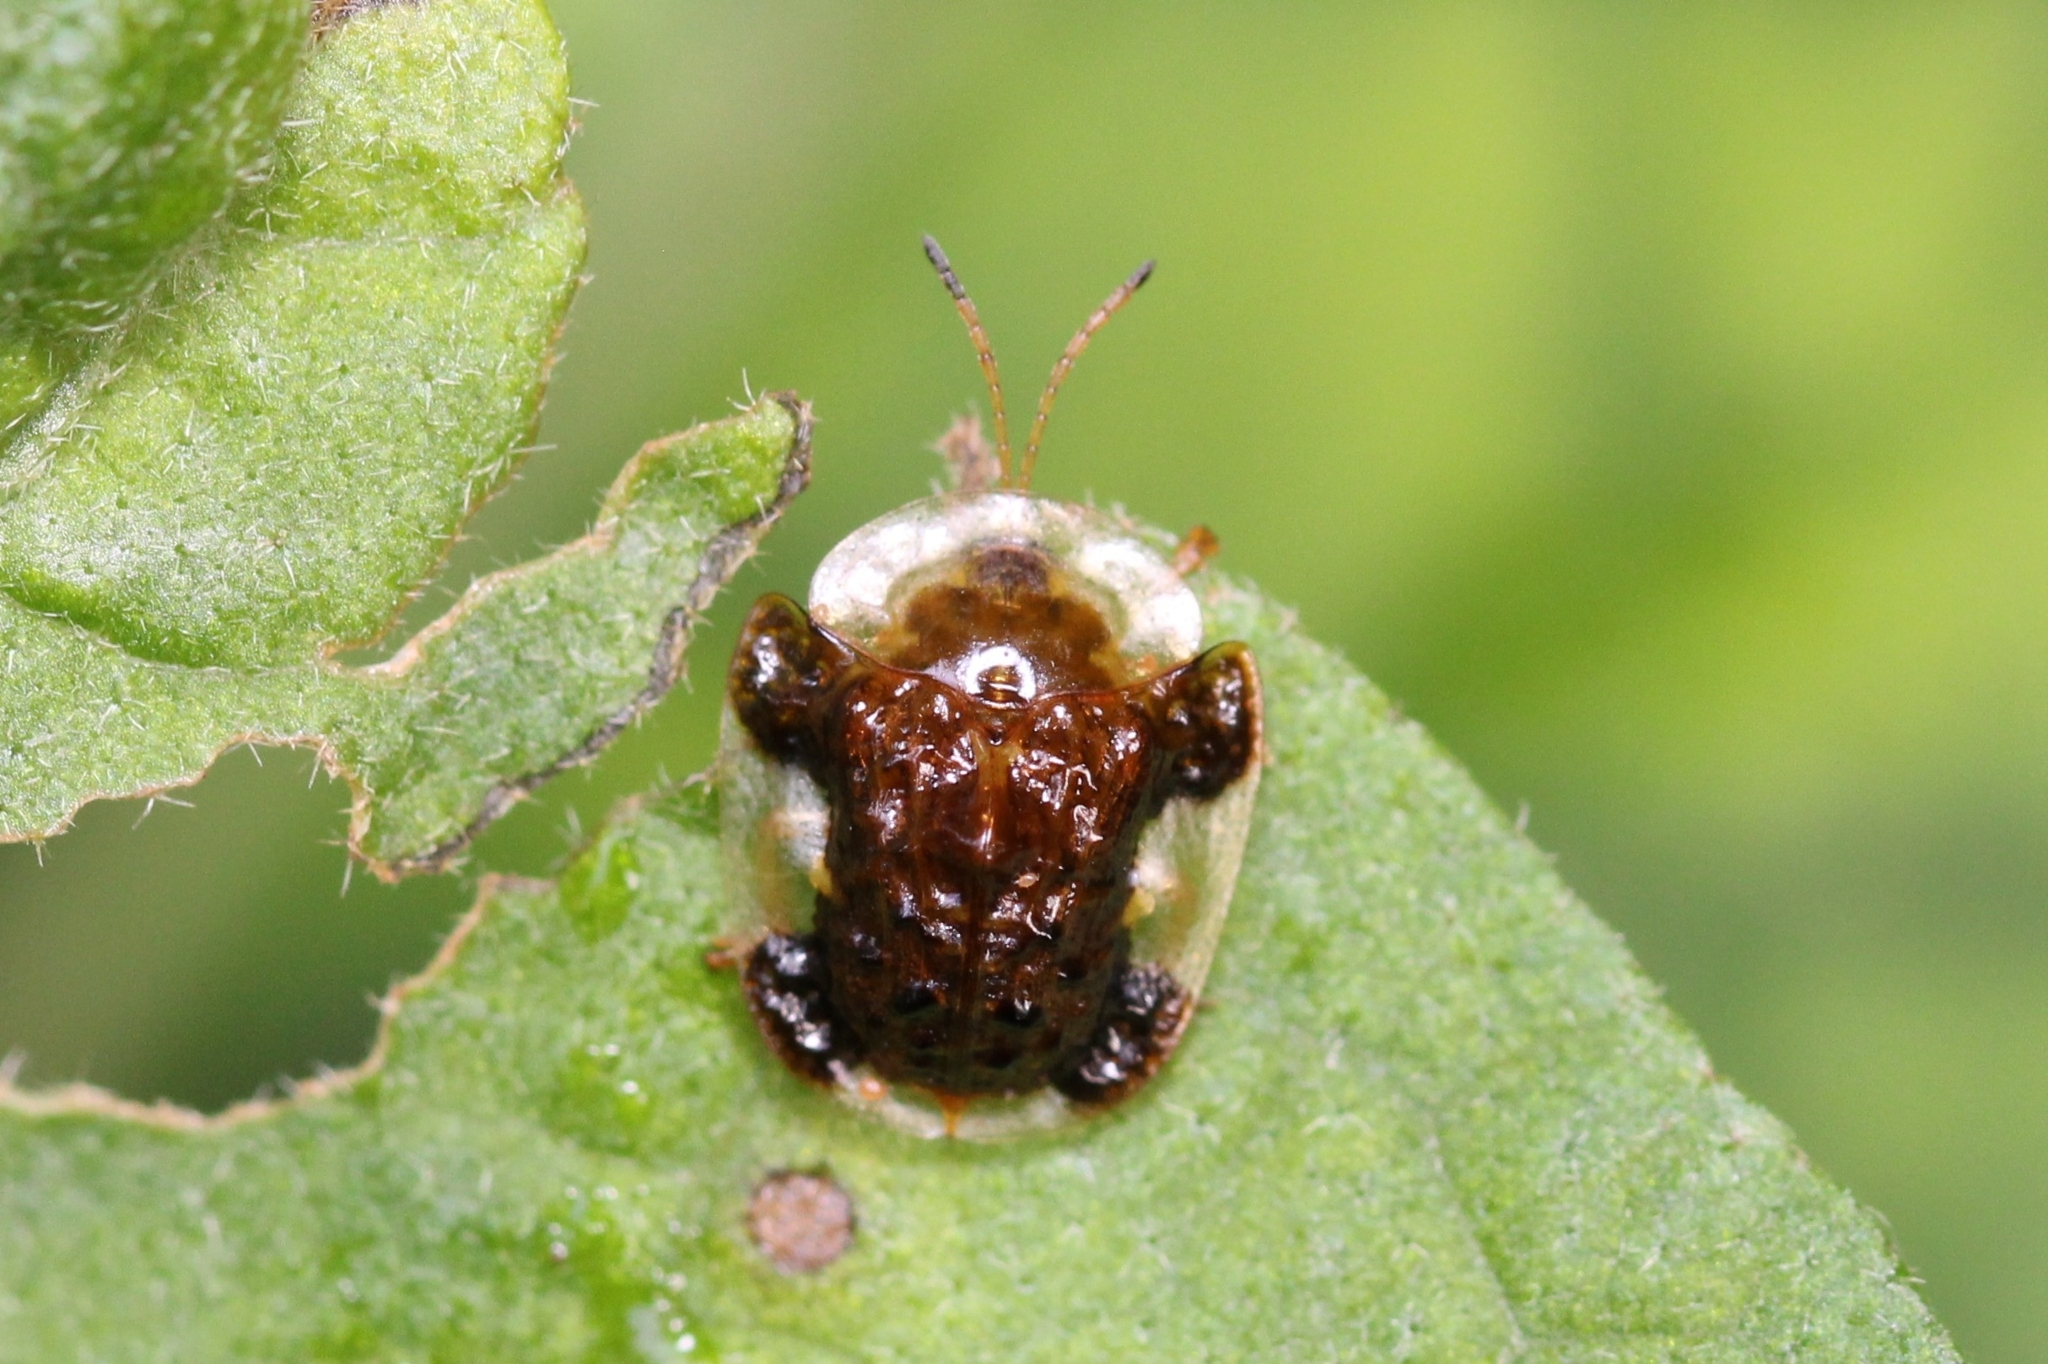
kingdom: Animalia
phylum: Arthropoda
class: Insecta
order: Coleoptera
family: Chrysomelidae
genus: Helocassis
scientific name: Helocassis clavata
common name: Clavate tortoise beetle
